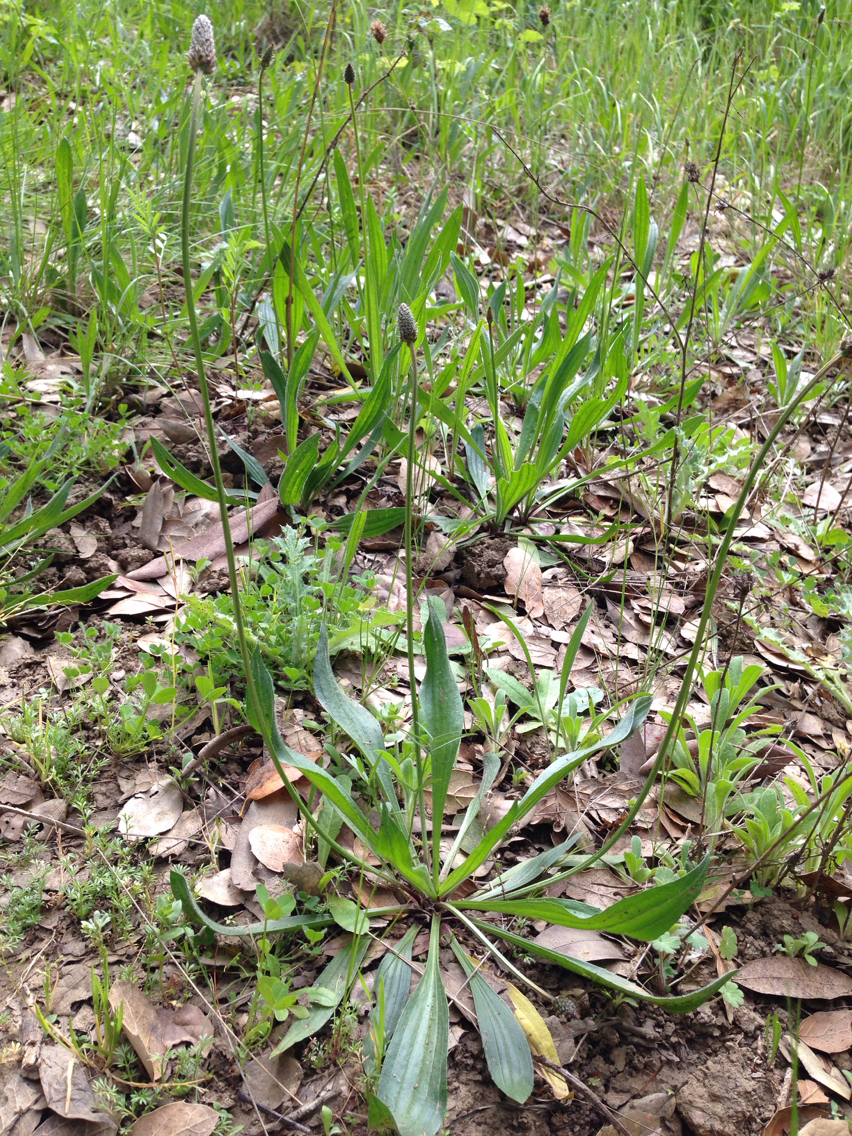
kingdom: Plantae
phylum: Tracheophyta
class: Magnoliopsida
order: Lamiales
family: Plantaginaceae
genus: Plantago
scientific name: Plantago lanceolata
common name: Ribwort plantain
